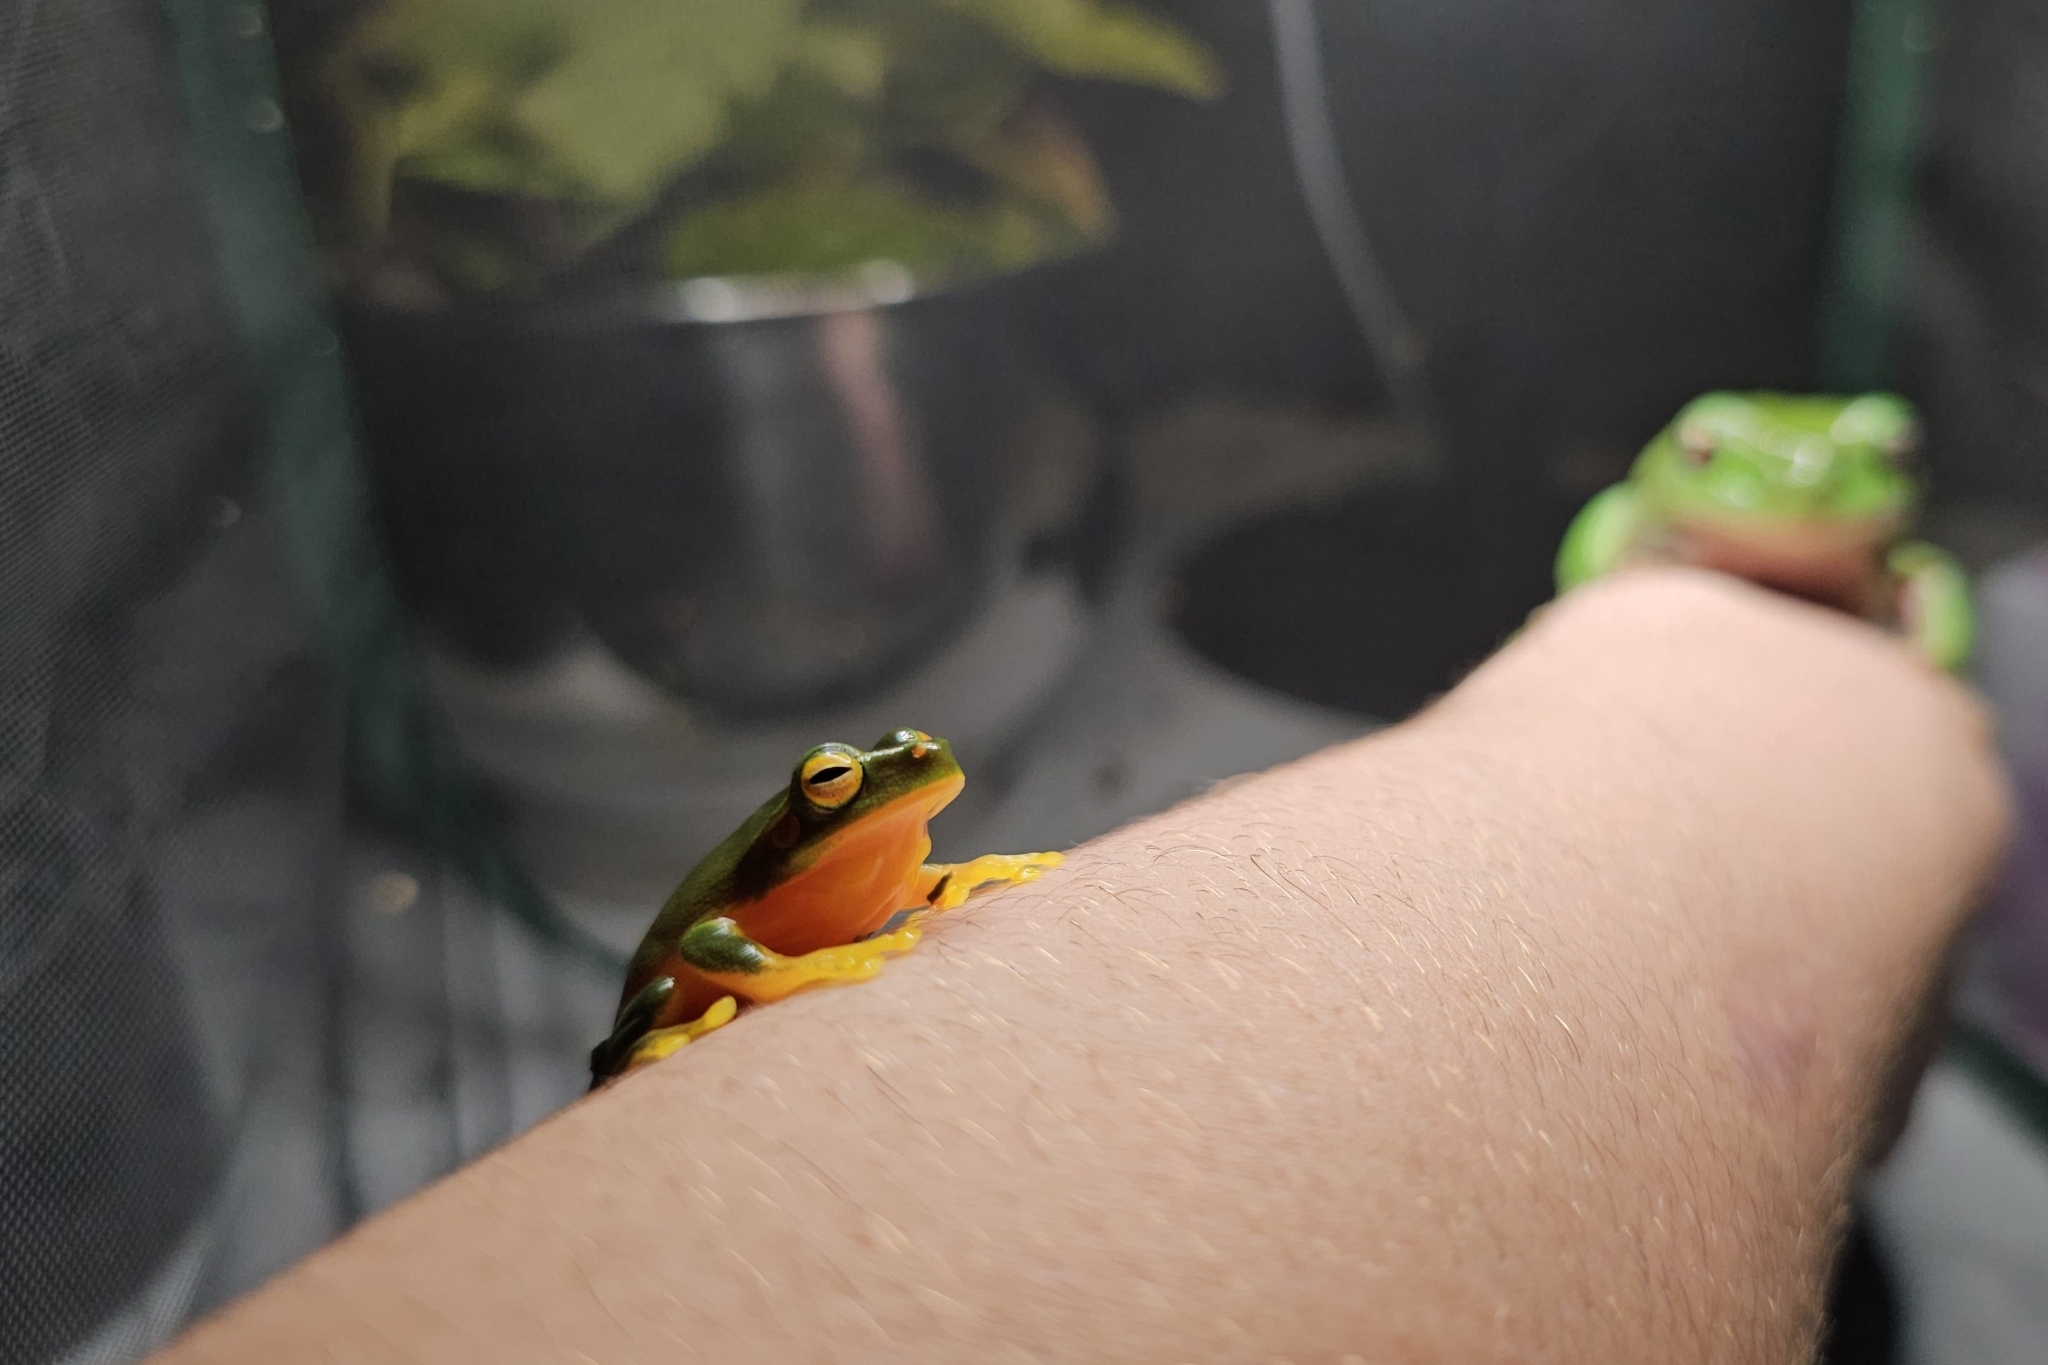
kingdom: Animalia
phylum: Chordata
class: Amphibia
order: Anura
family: Pelodryadidae
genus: Ranoidea
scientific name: Ranoidea gracilenta
